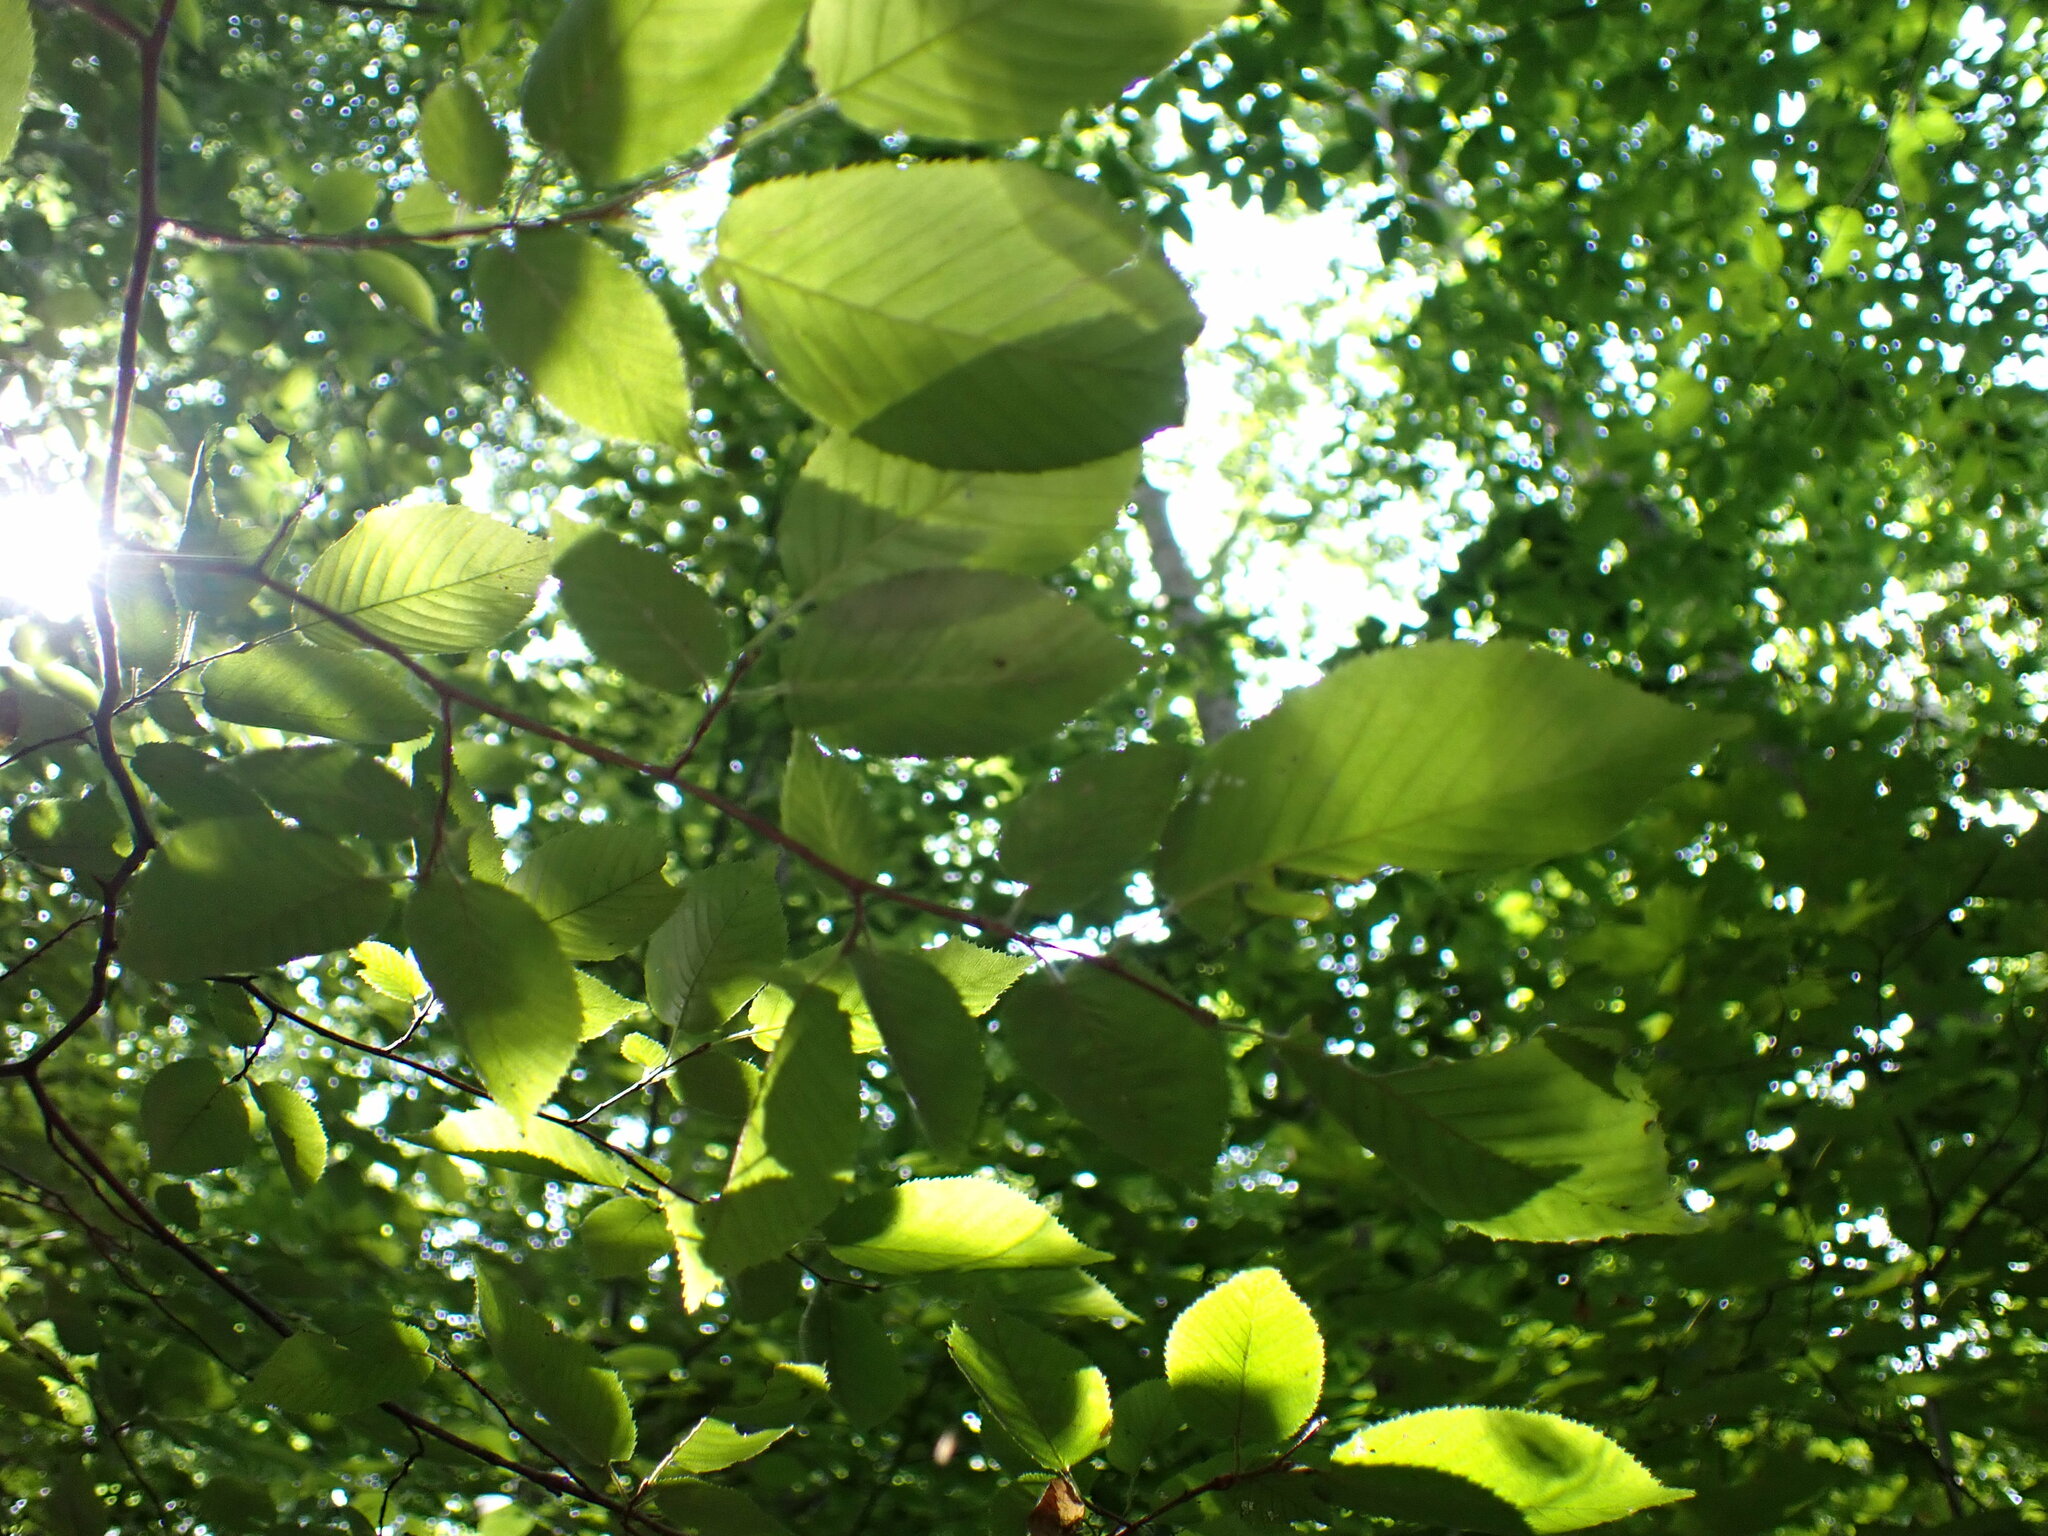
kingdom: Plantae
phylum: Tracheophyta
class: Magnoliopsida
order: Fagales
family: Betulaceae
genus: Carpinus
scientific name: Carpinus caroliniana
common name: American hornbeam
